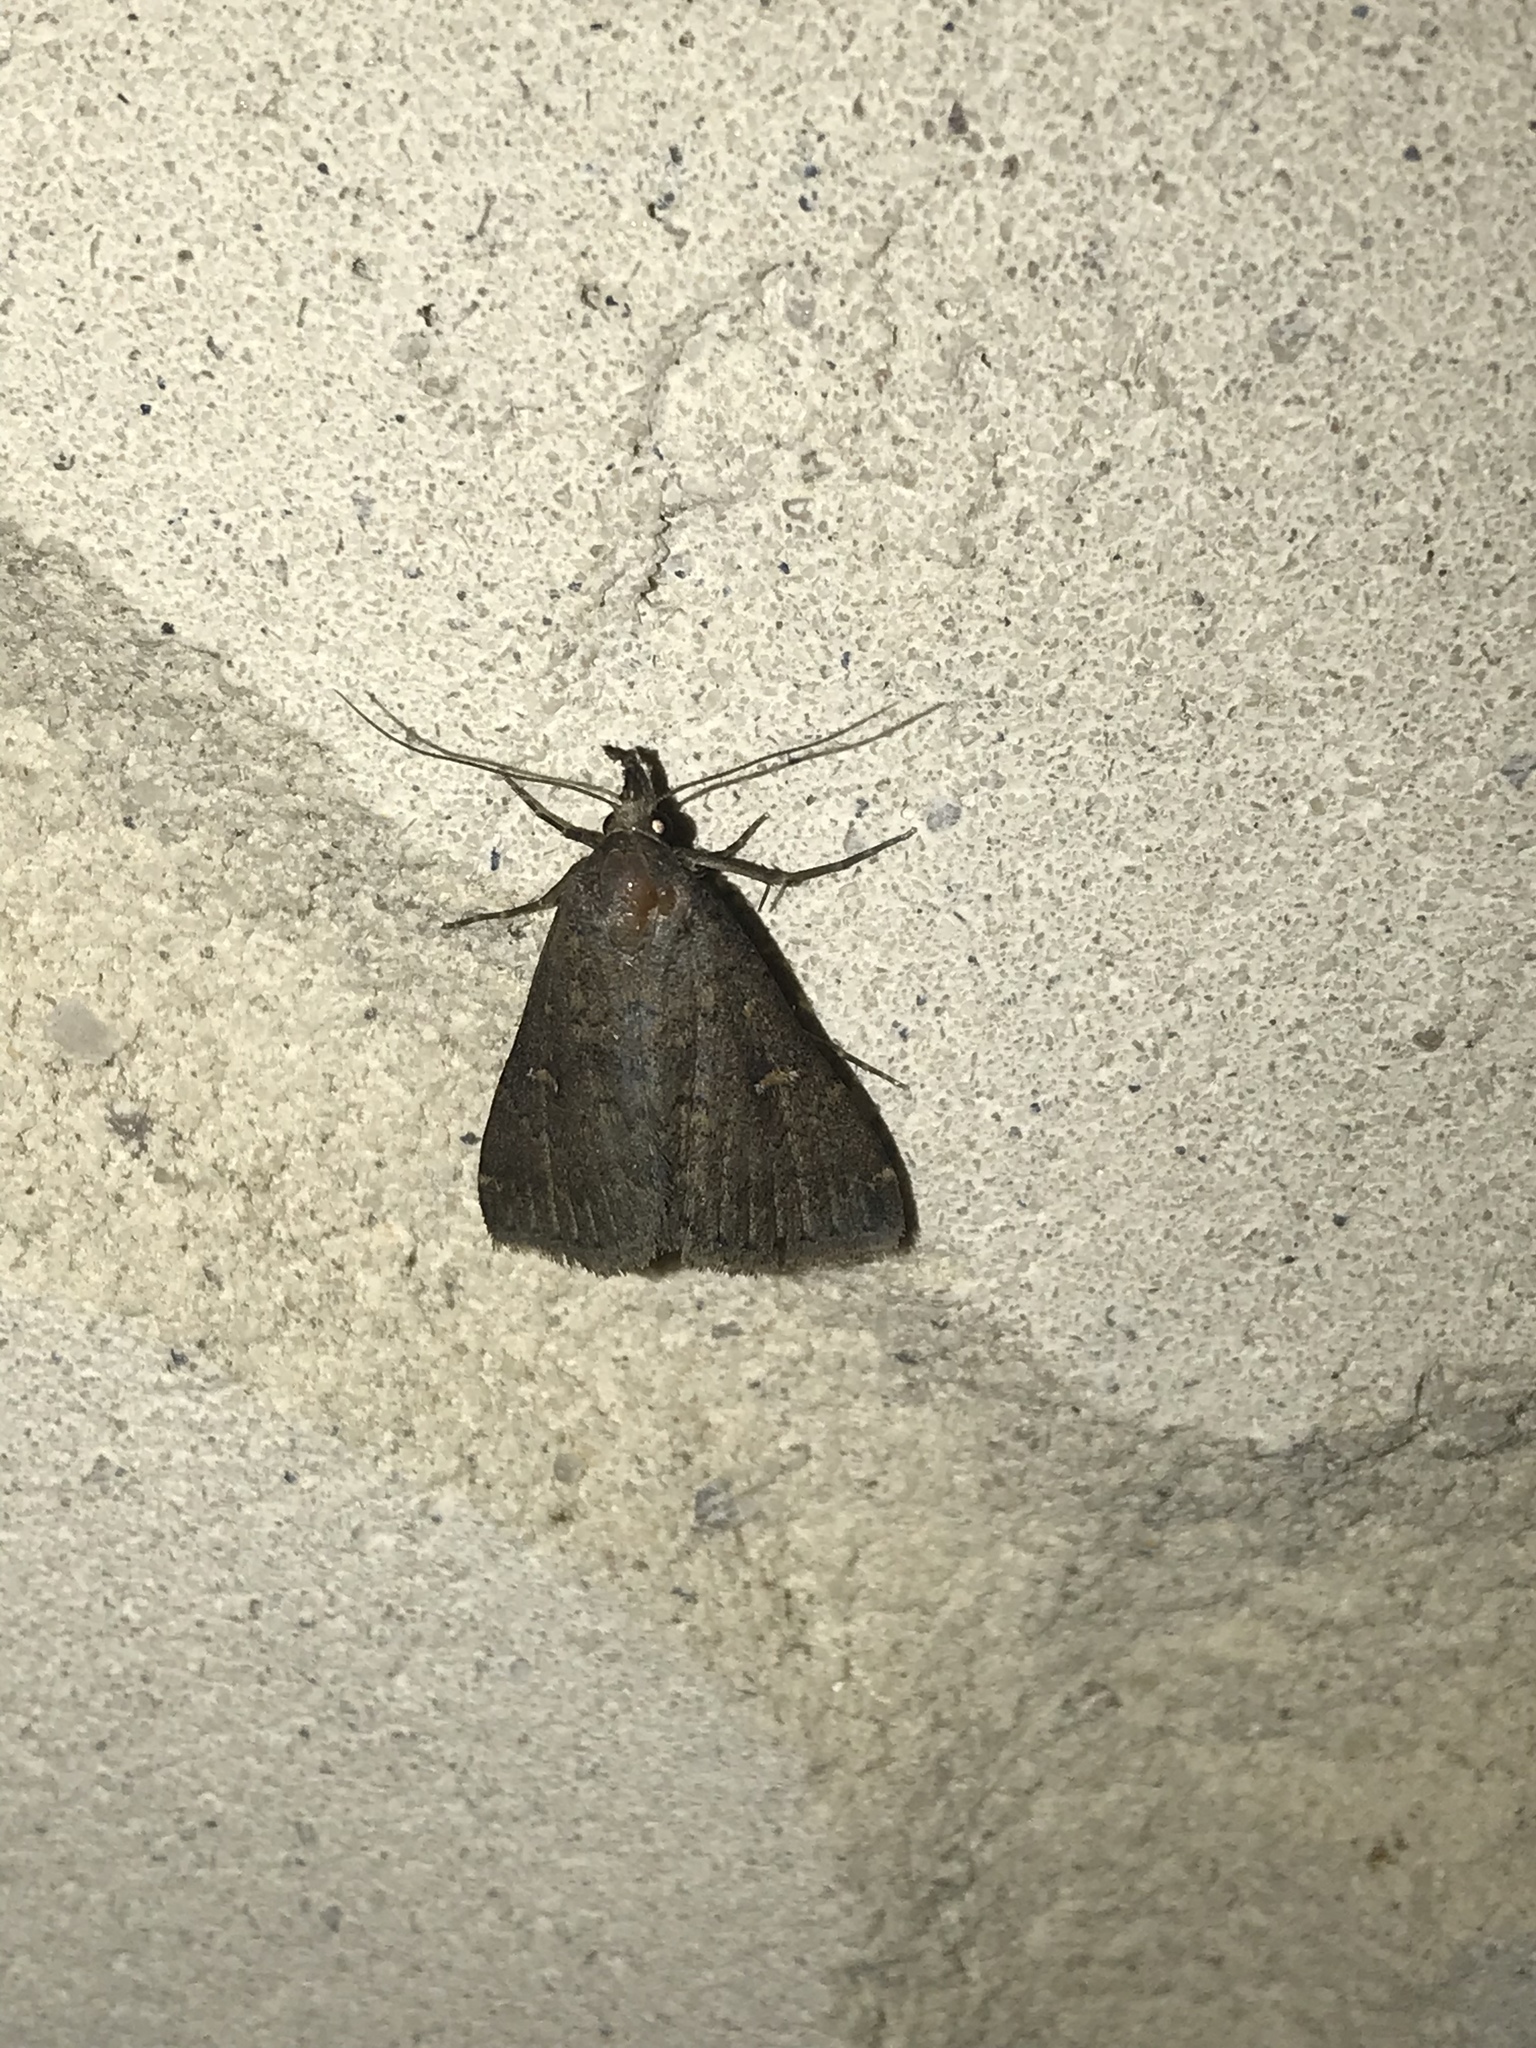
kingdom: Animalia
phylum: Arthropoda
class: Insecta
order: Lepidoptera
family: Erebidae
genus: Tetanolita
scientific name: Tetanolita mynesalis
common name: Smoky tetanolita moth
